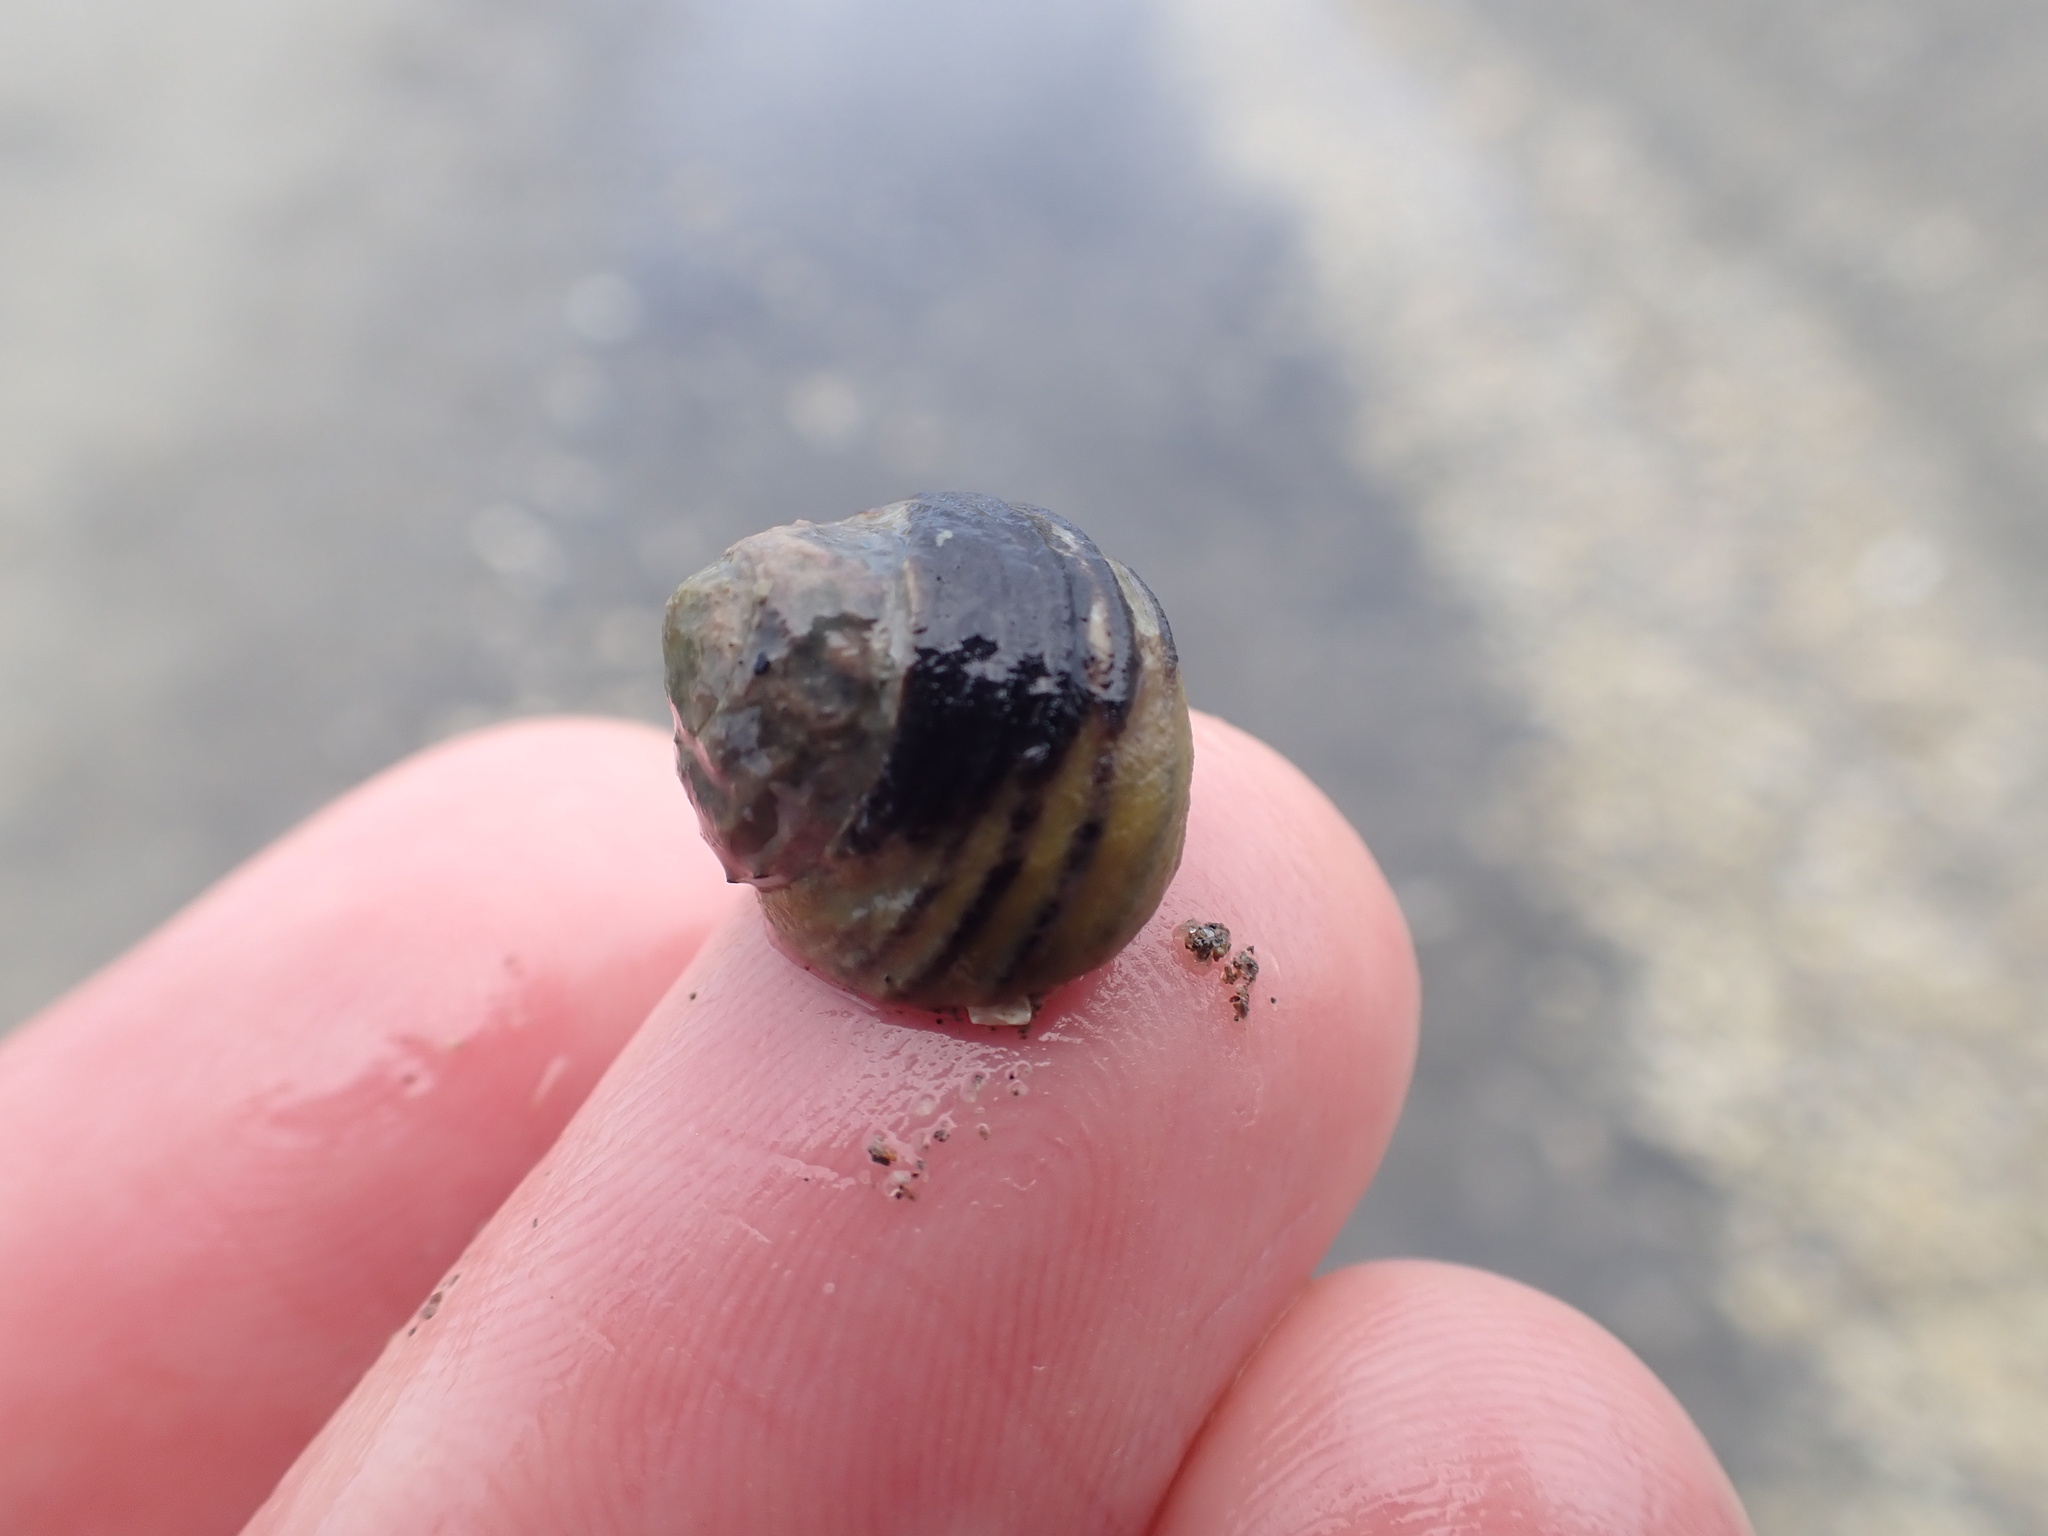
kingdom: Animalia
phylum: Mollusca
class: Gastropoda
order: Trochida
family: Trochidae
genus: Diloma
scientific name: Diloma subrostratum
